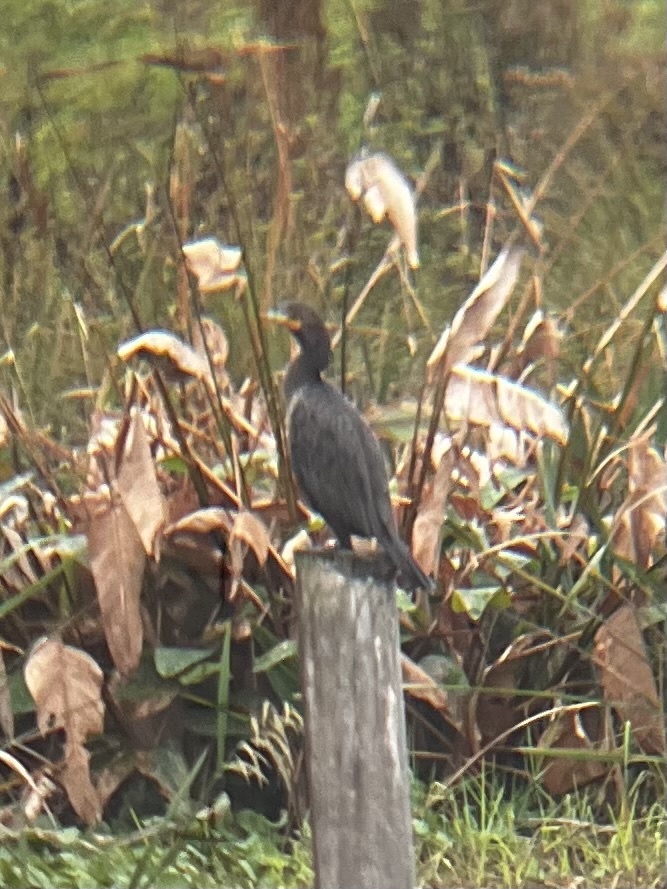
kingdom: Animalia
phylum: Chordata
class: Aves
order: Suliformes
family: Phalacrocoracidae
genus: Phalacrocorax
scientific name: Phalacrocorax auritus
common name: Double-crested cormorant
